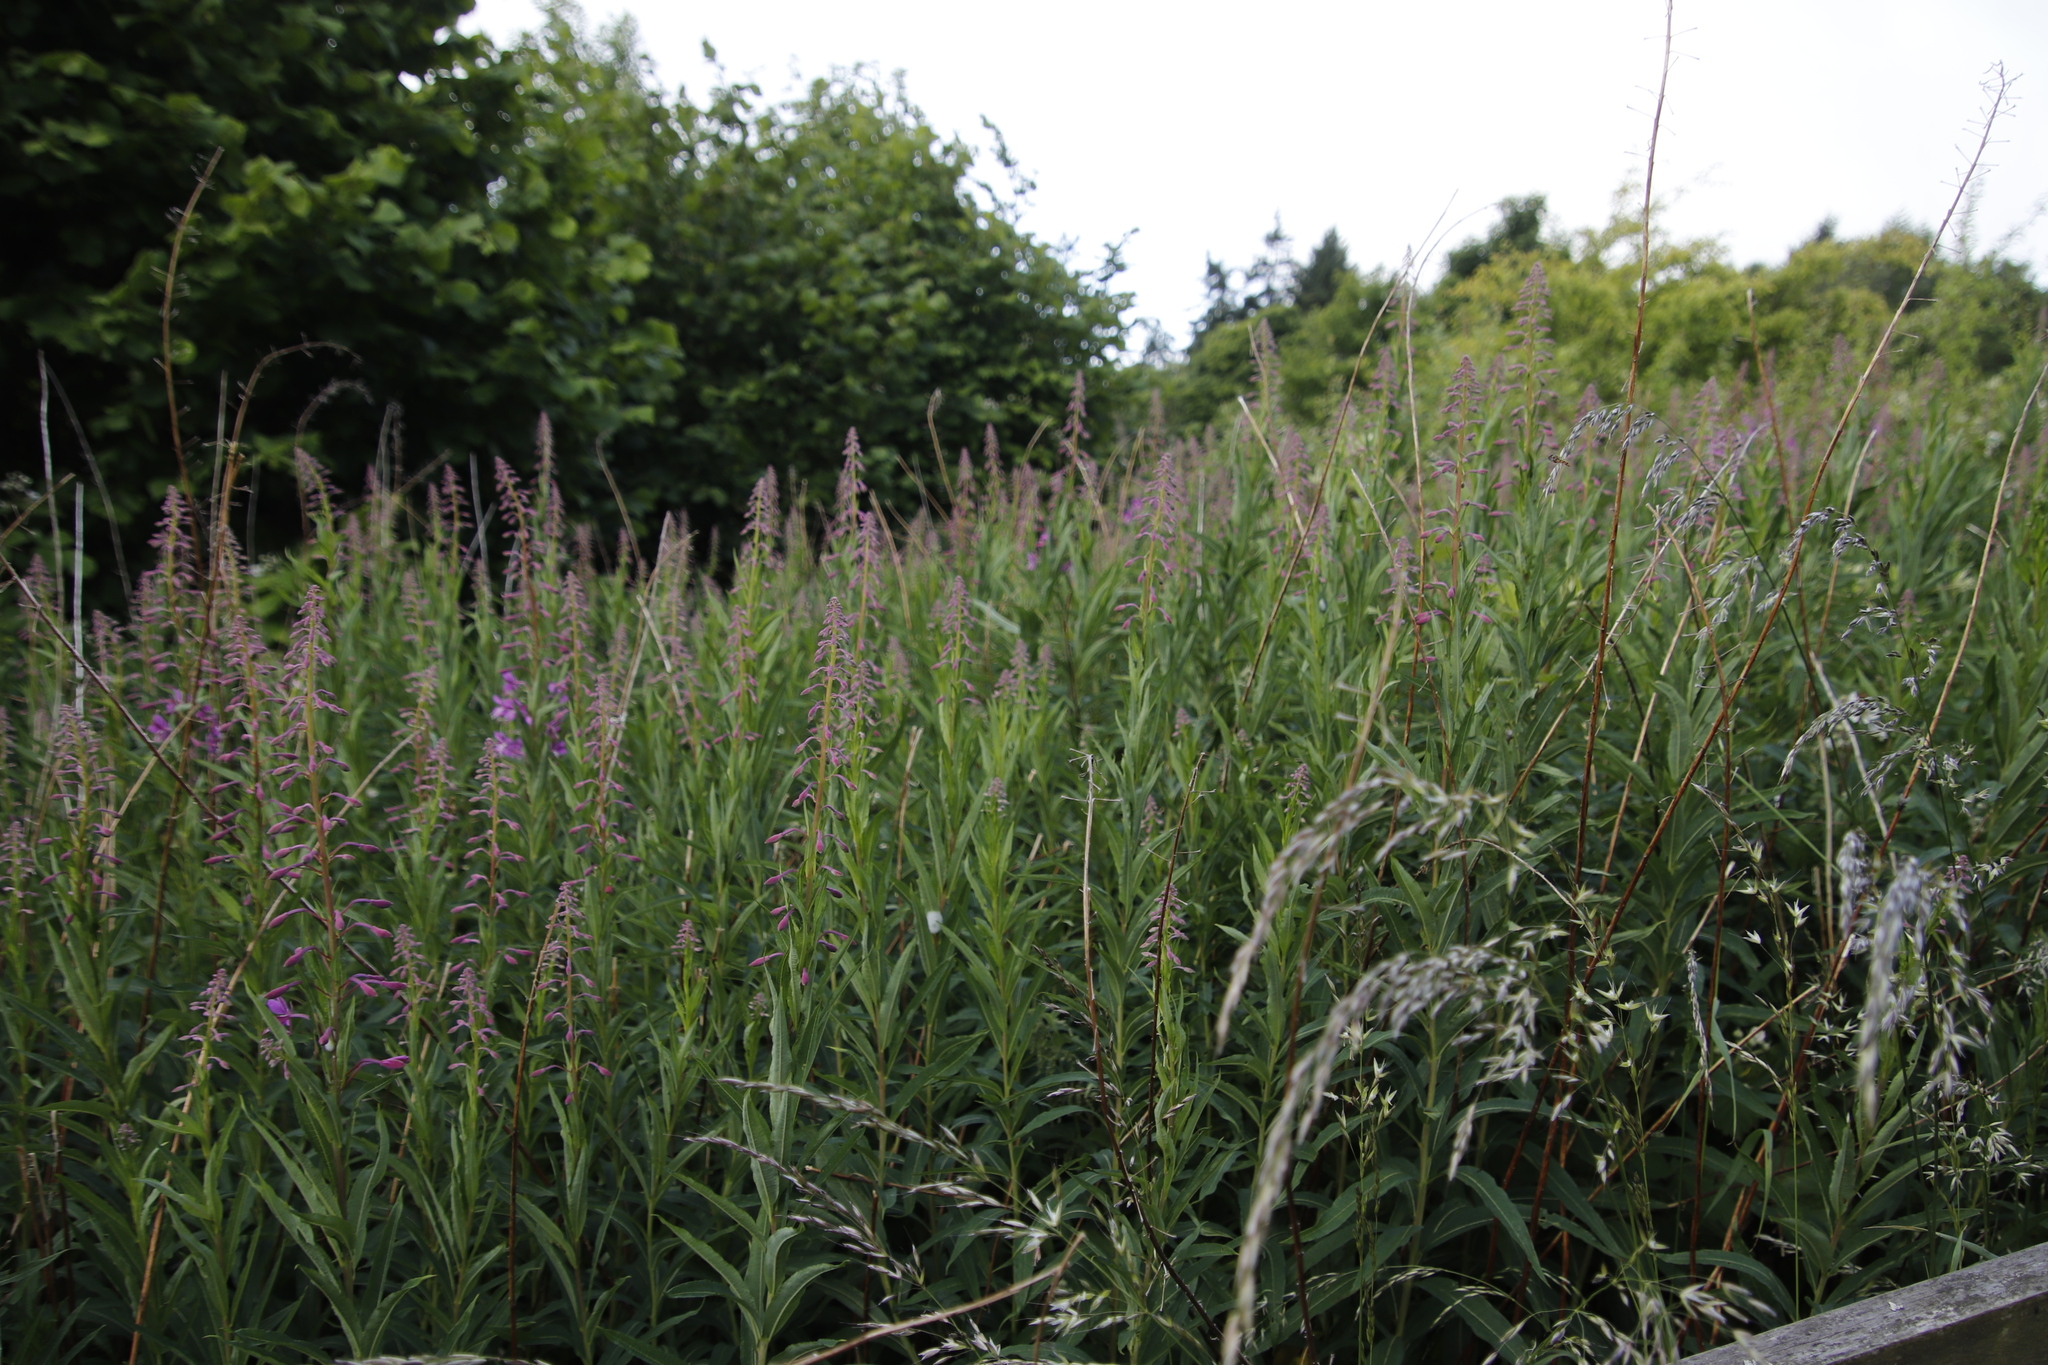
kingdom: Plantae
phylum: Tracheophyta
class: Magnoliopsida
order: Myrtales
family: Onagraceae
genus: Chamaenerion
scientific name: Chamaenerion angustifolium
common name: Fireweed
